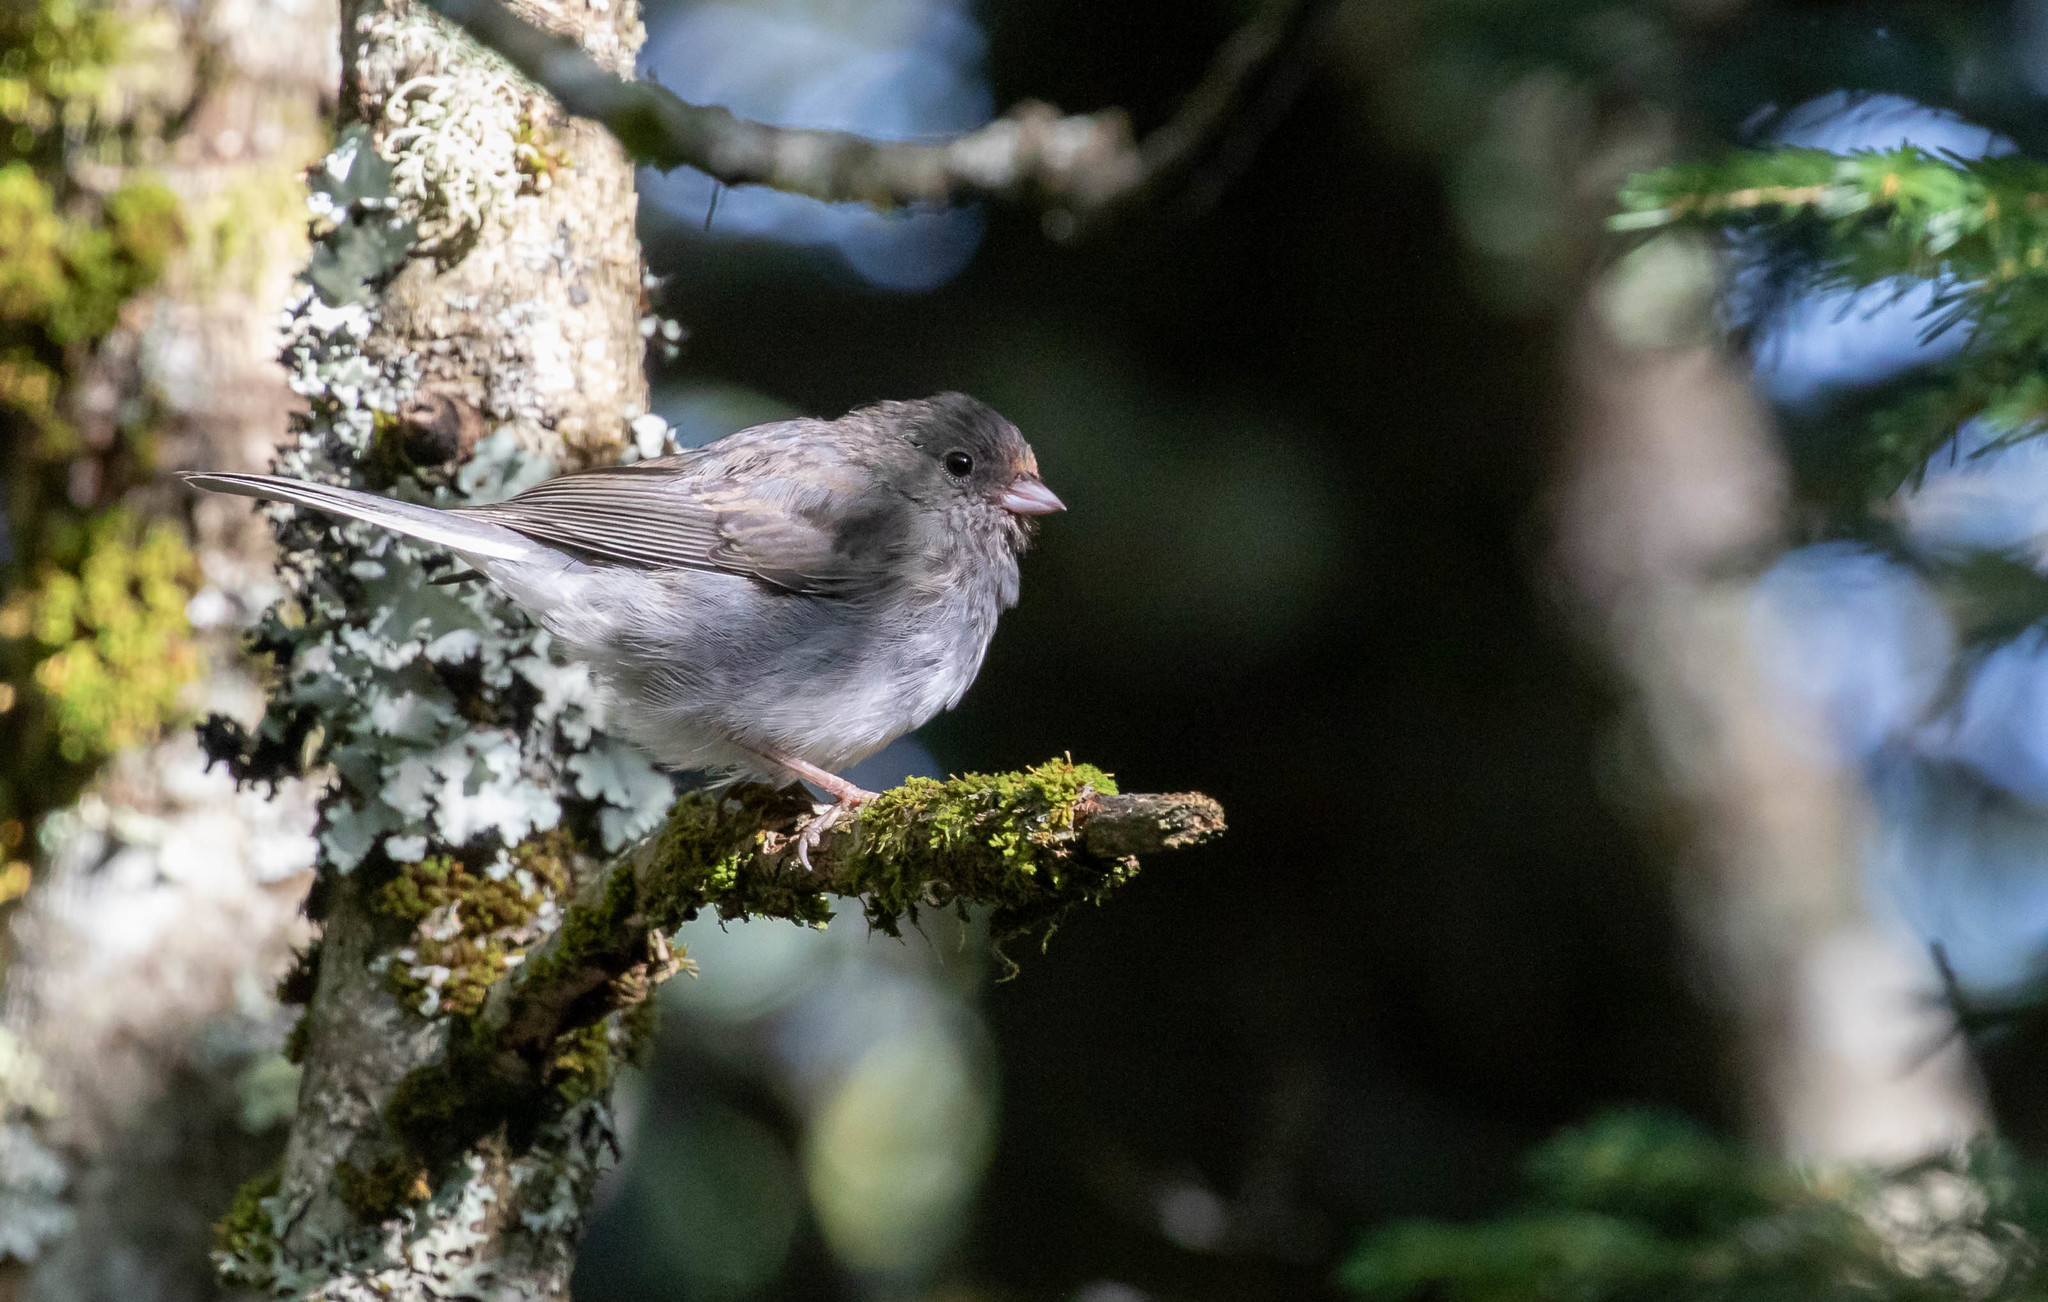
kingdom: Animalia
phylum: Chordata
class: Aves
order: Passeriformes
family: Passerellidae
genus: Junco
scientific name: Junco hyemalis
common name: Dark-eyed junco
